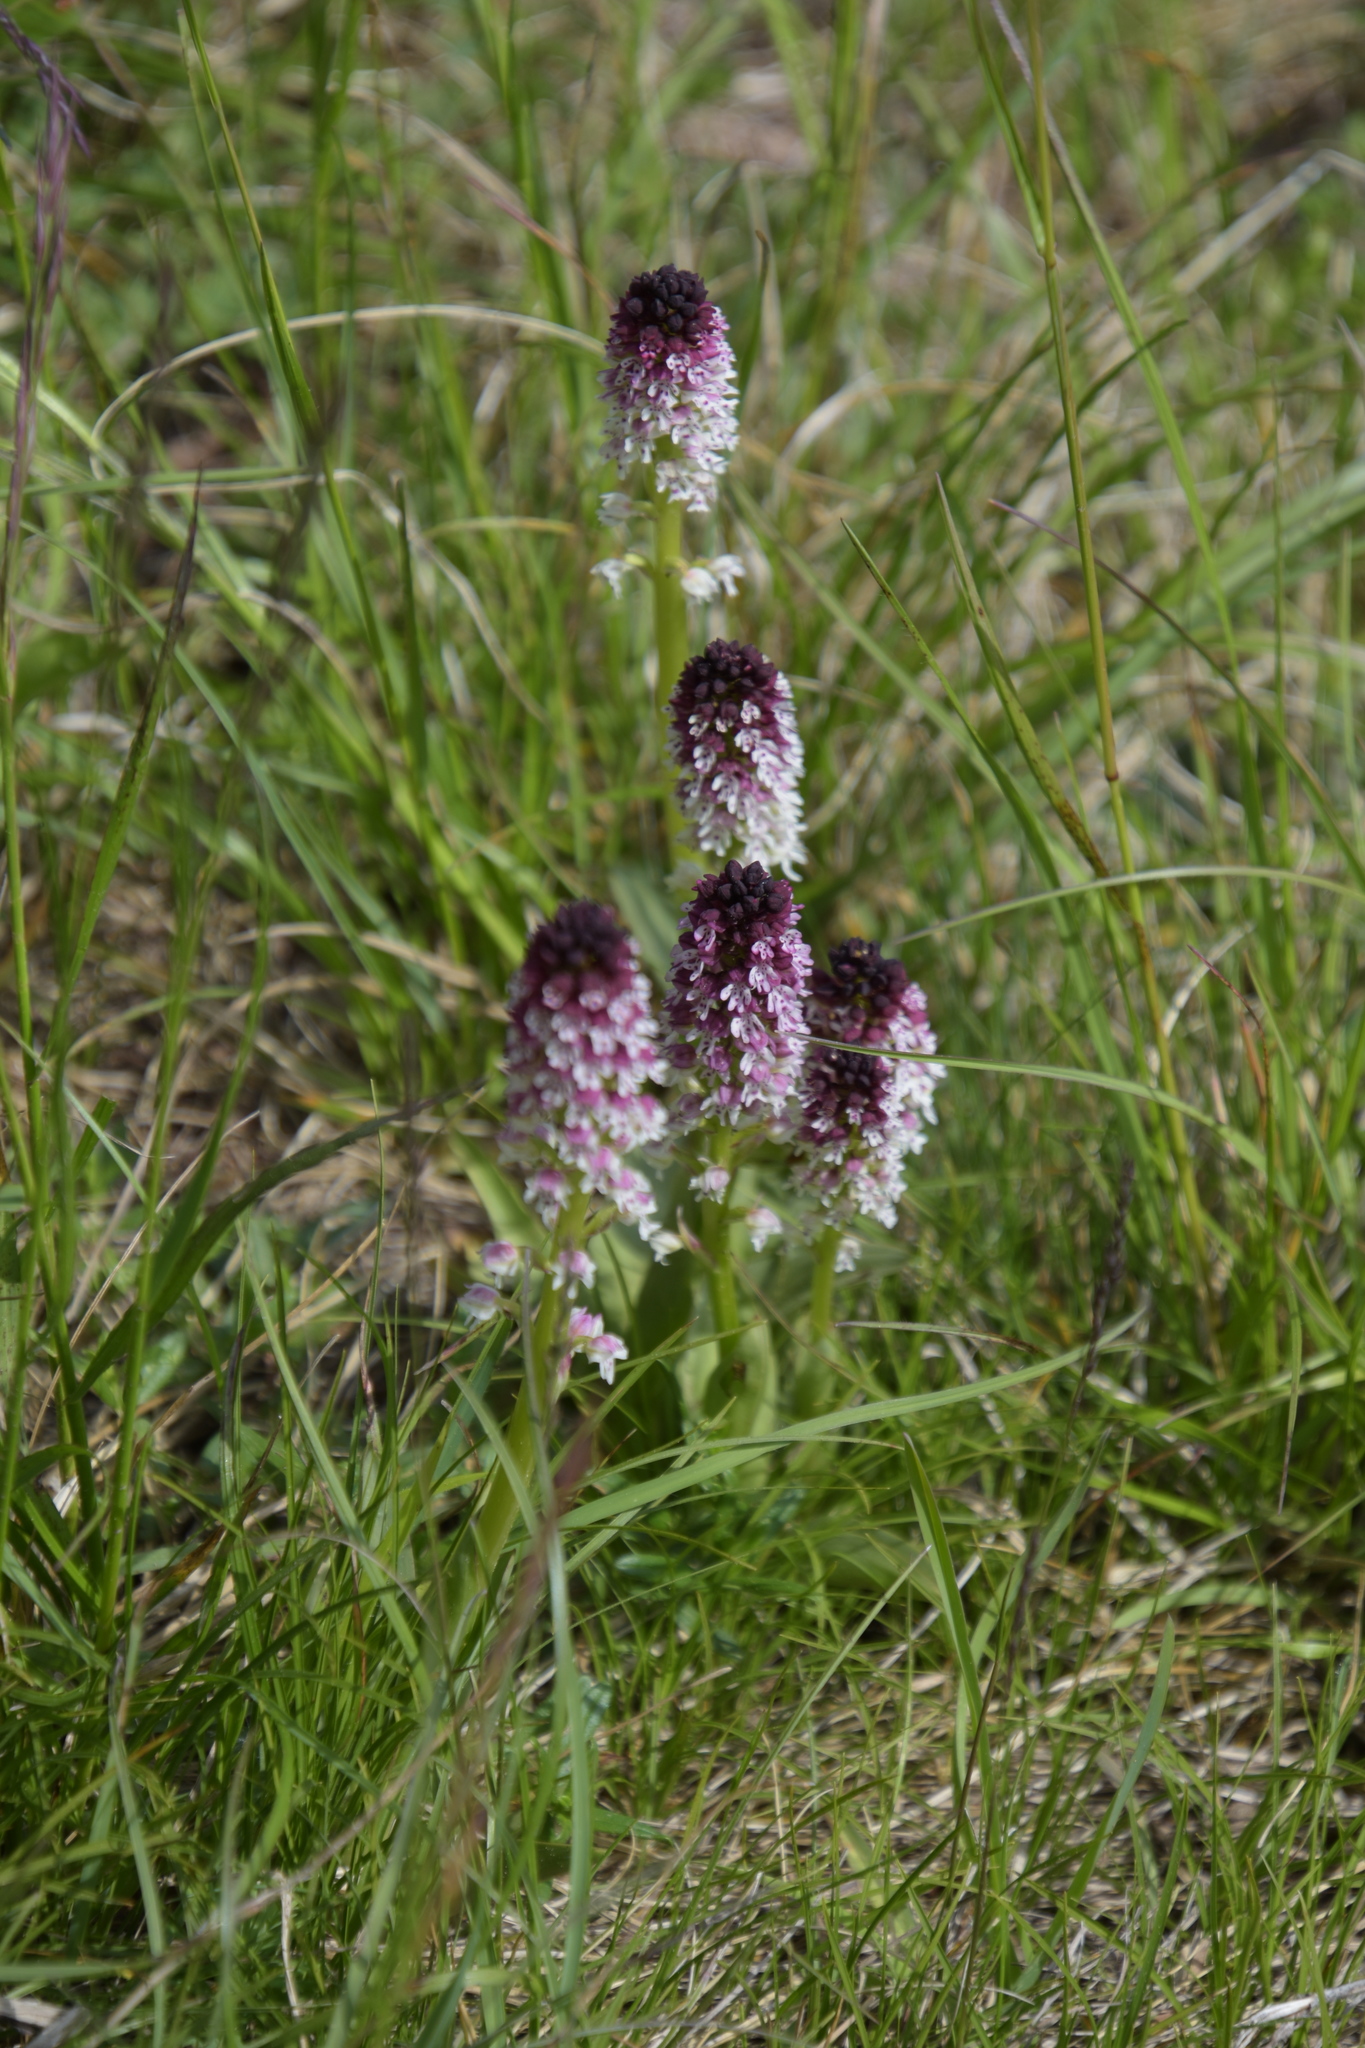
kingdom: Plantae
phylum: Tracheophyta
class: Liliopsida
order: Asparagales
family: Orchidaceae
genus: Neotinea
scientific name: Neotinea ustulata
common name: Burnt orchid
